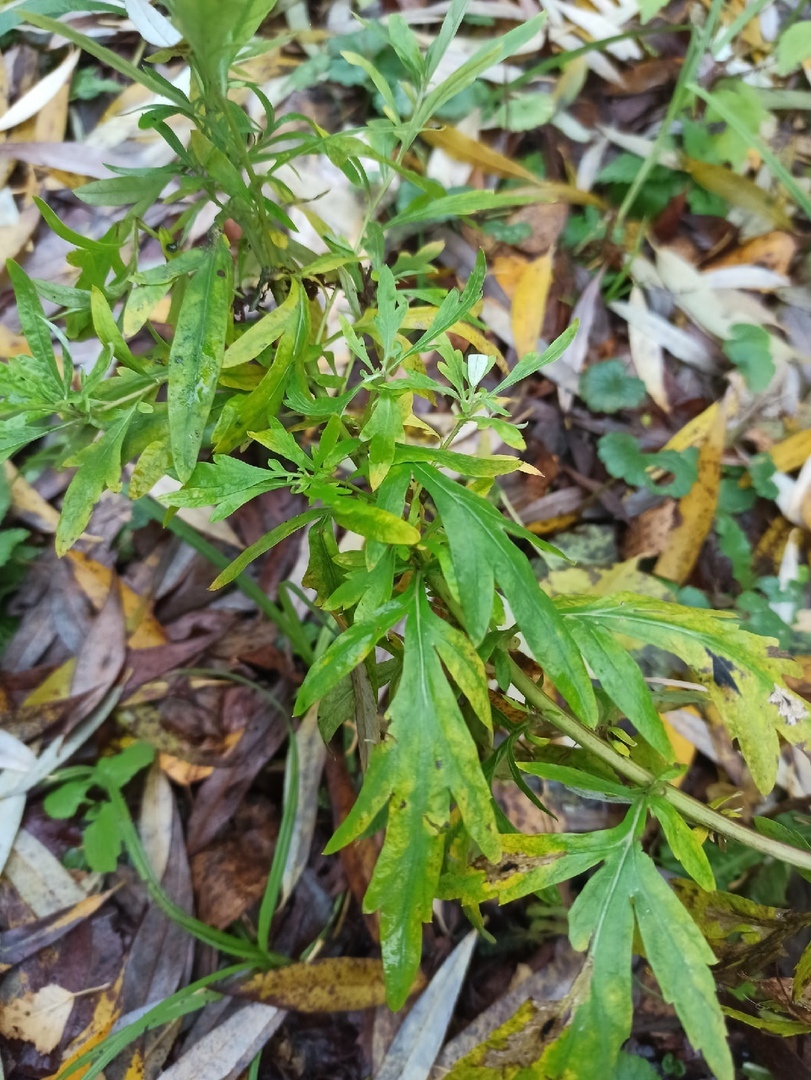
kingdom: Plantae
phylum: Tracheophyta
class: Magnoliopsida
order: Asterales
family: Asteraceae
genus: Artemisia
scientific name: Artemisia vulgaris
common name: Mugwort
